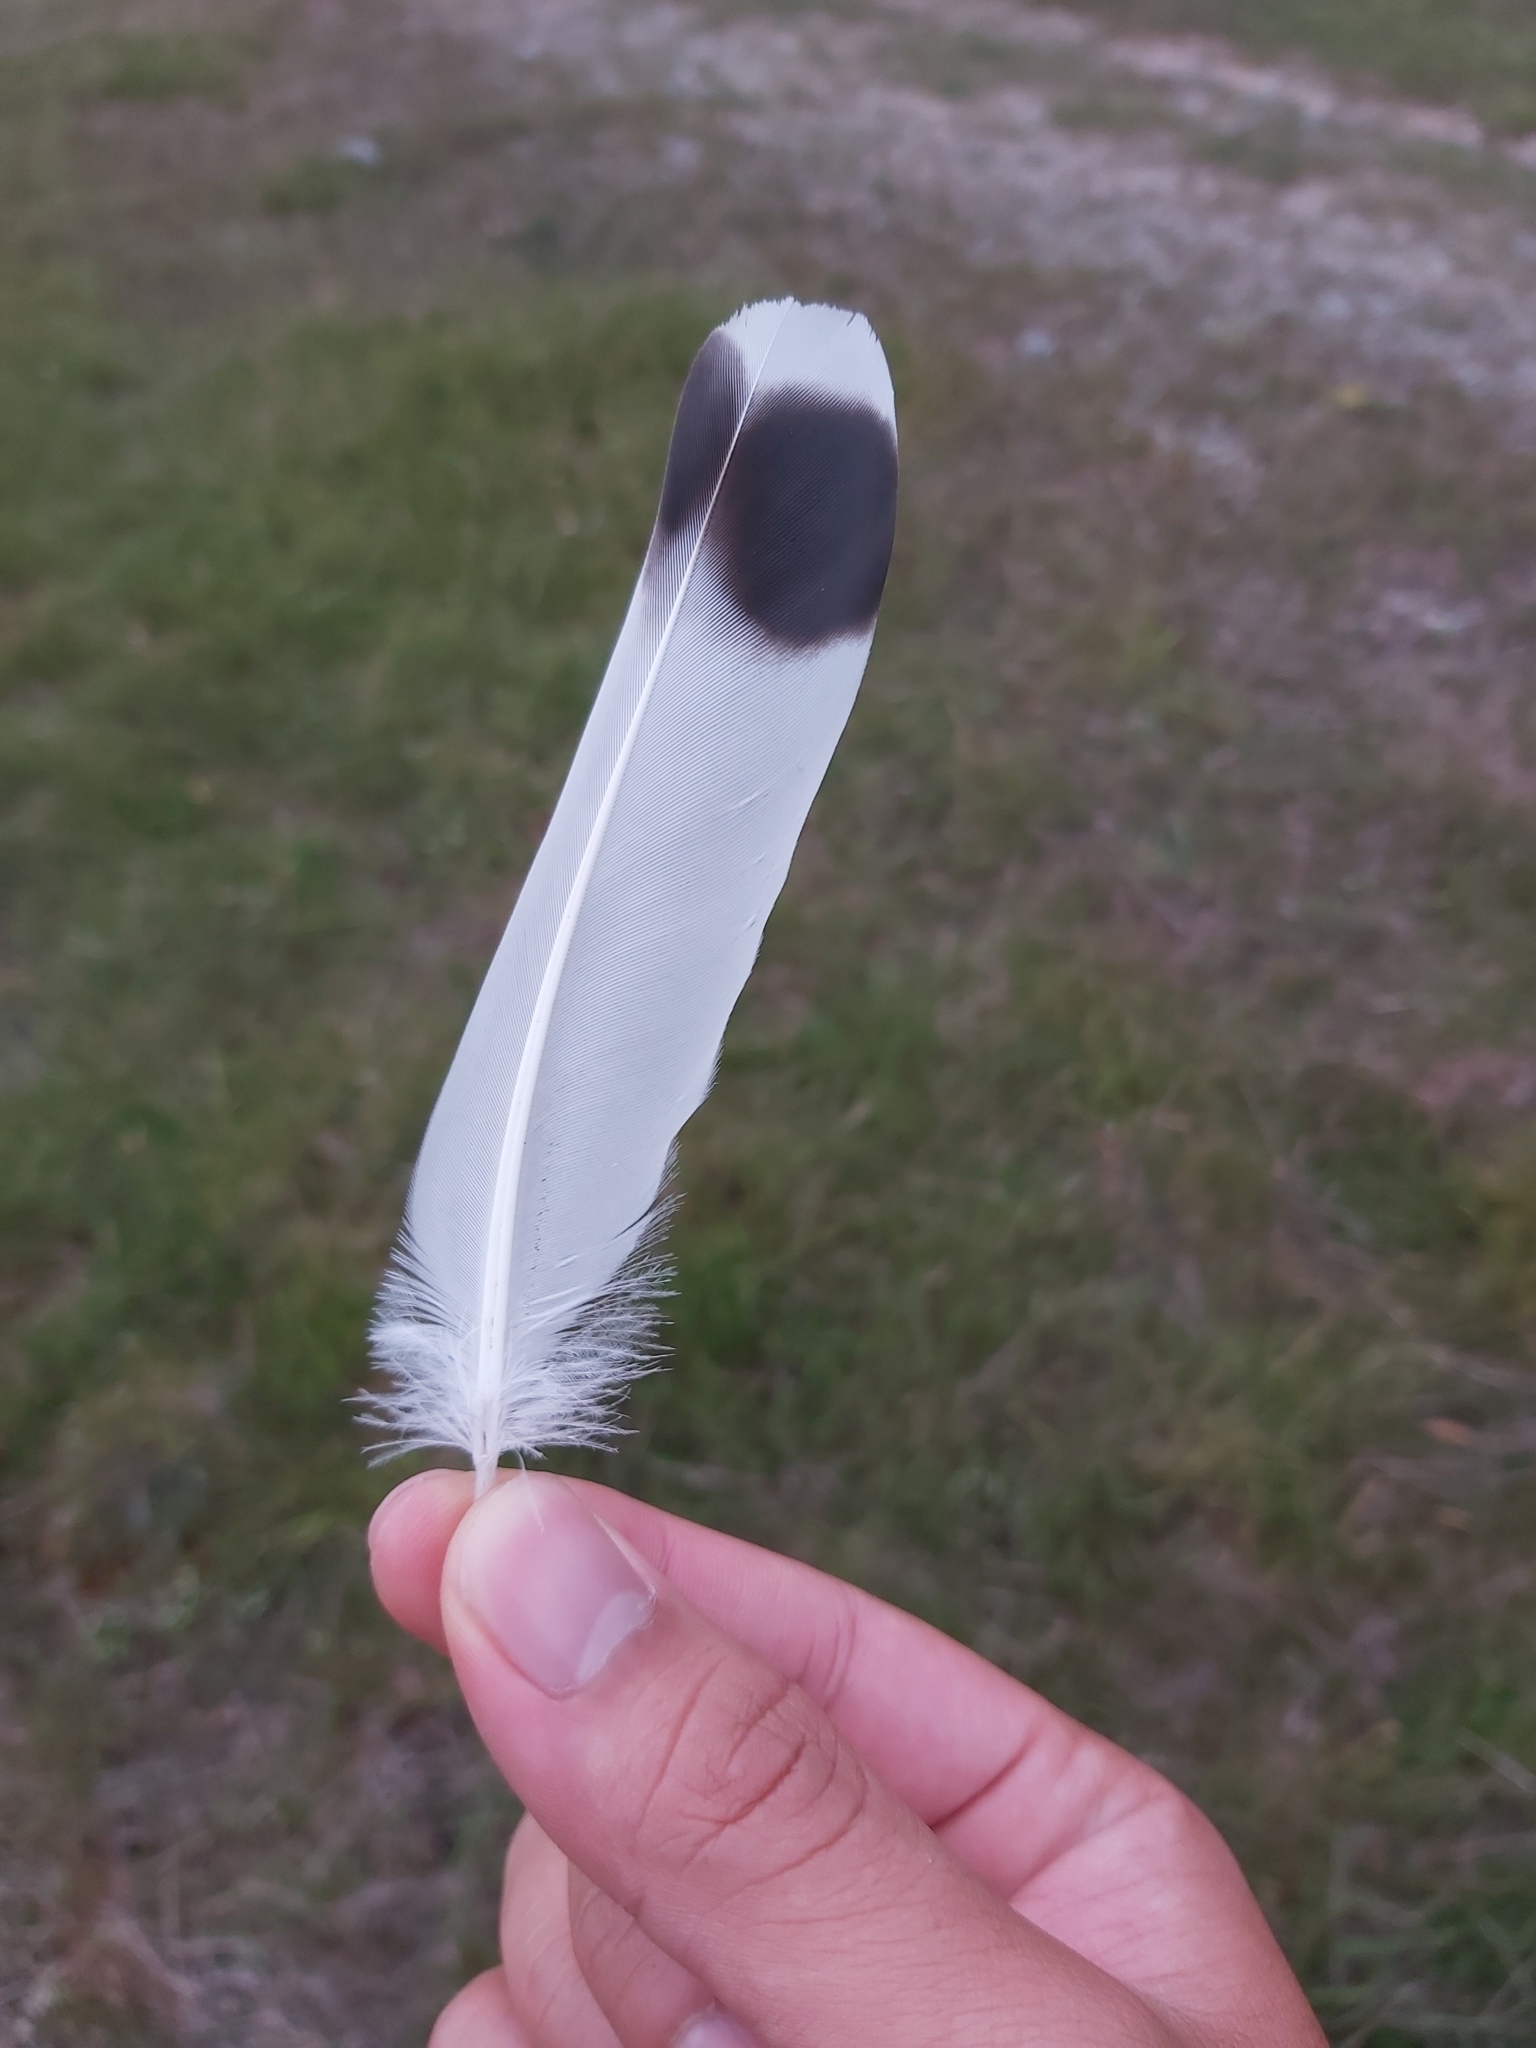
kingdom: Animalia
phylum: Chordata
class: Aves
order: Charadriiformes
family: Charadriidae
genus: Vanellus
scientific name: Vanellus miles
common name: Masked lapwing
